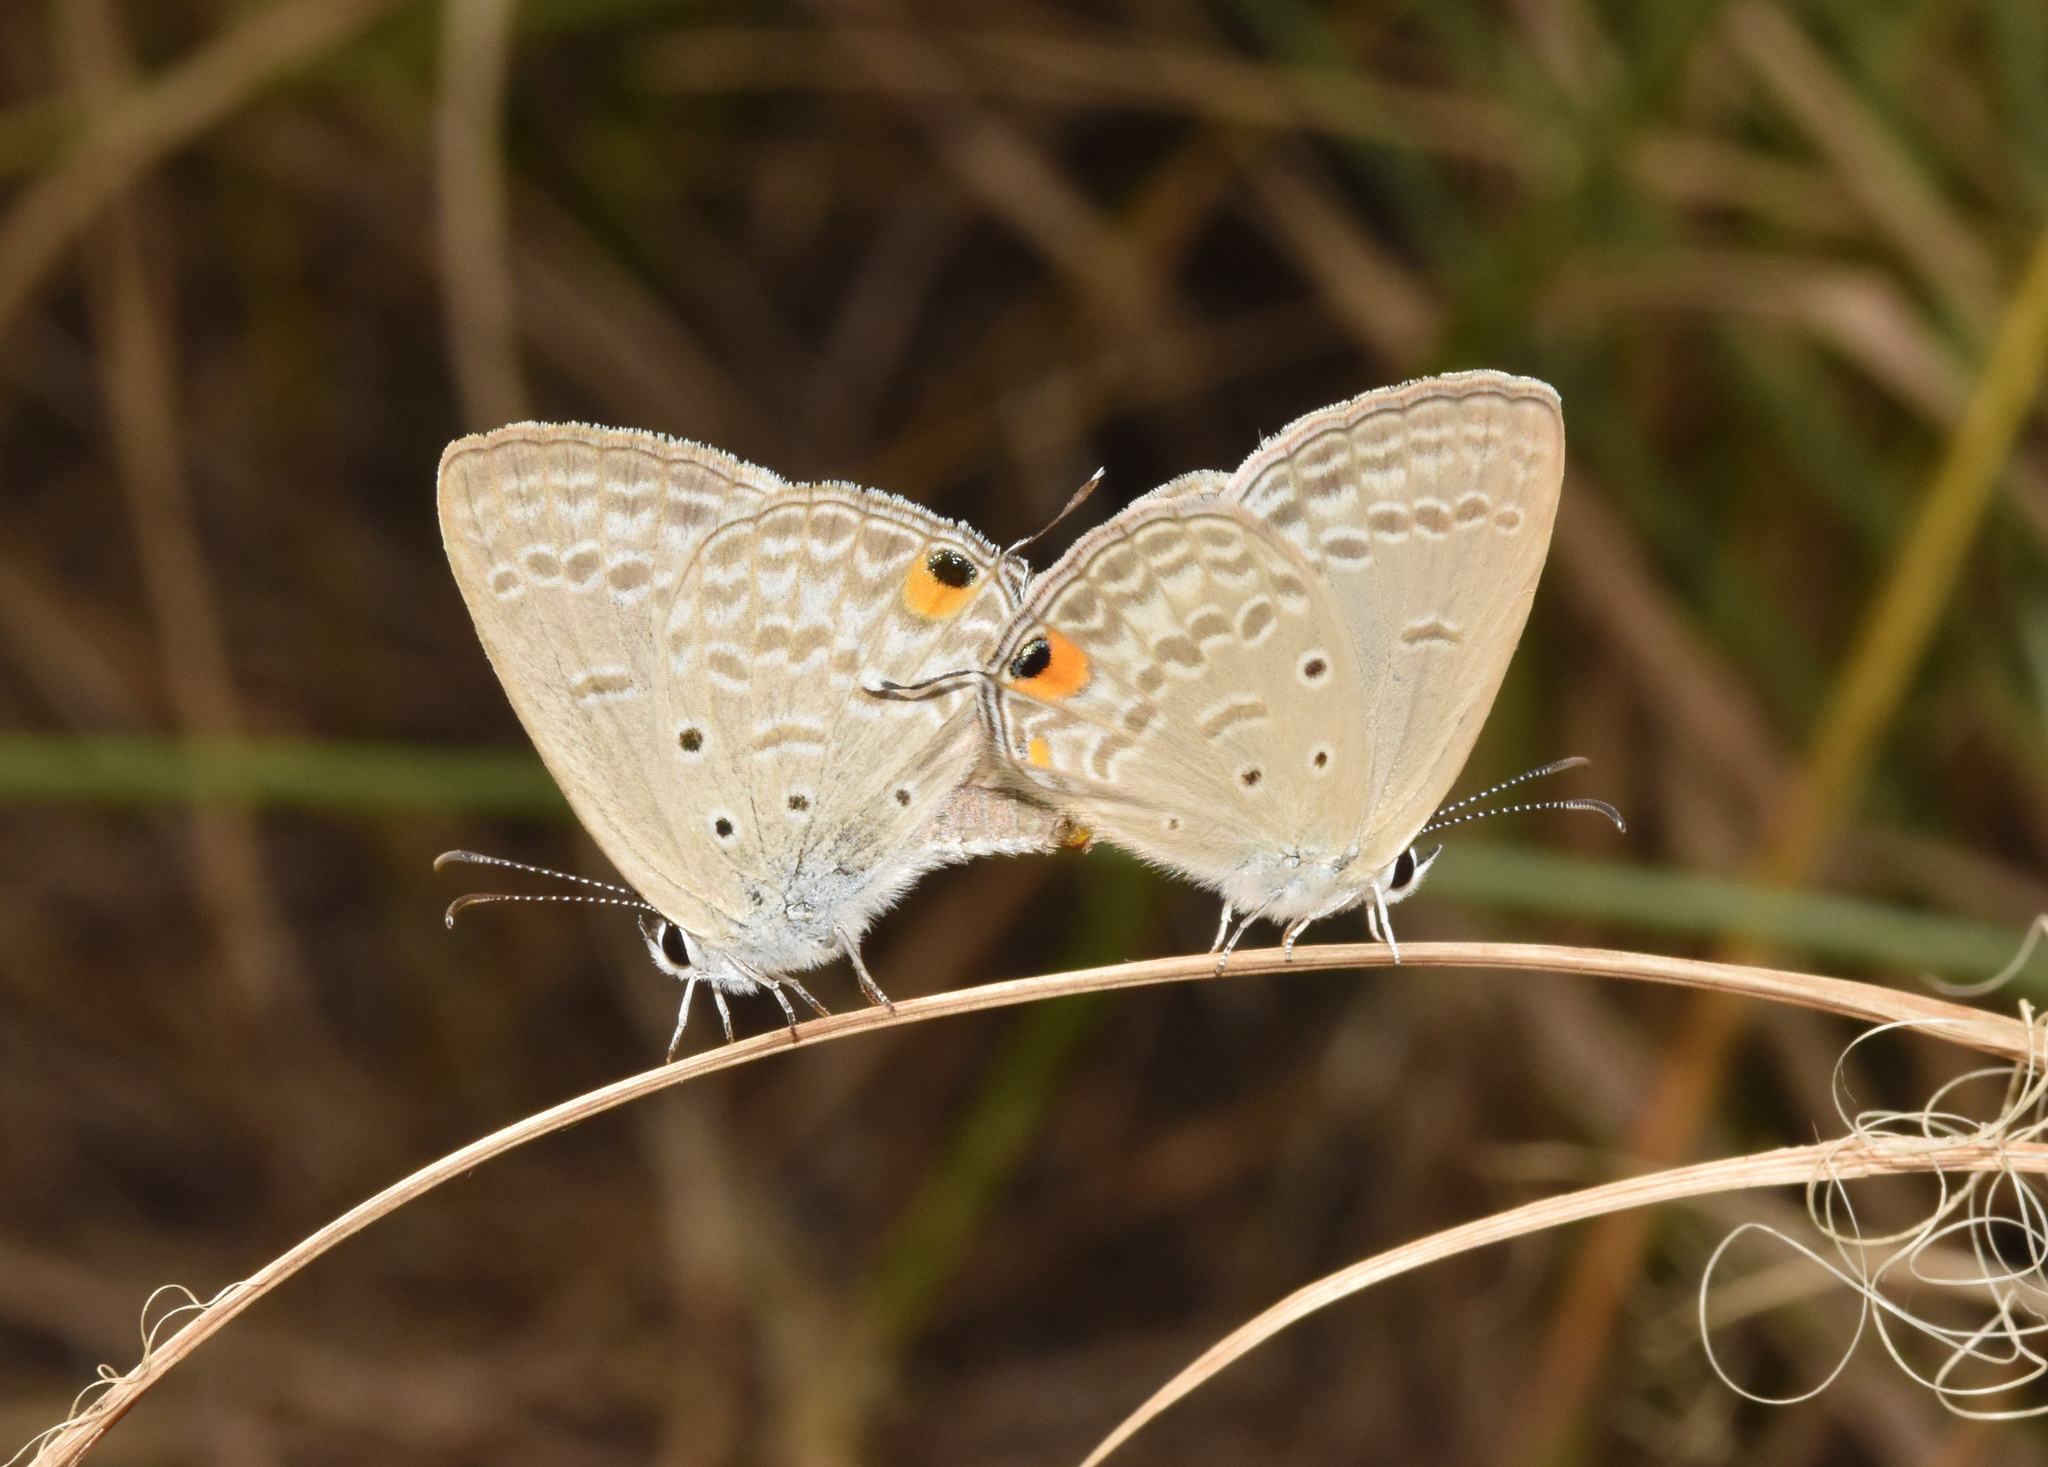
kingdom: Animalia
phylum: Arthropoda
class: Insecta
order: Lepidoptera
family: Lycaenidae
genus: Euchrysops
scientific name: Euchrysops barkeri
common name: Barker's smoky blue
